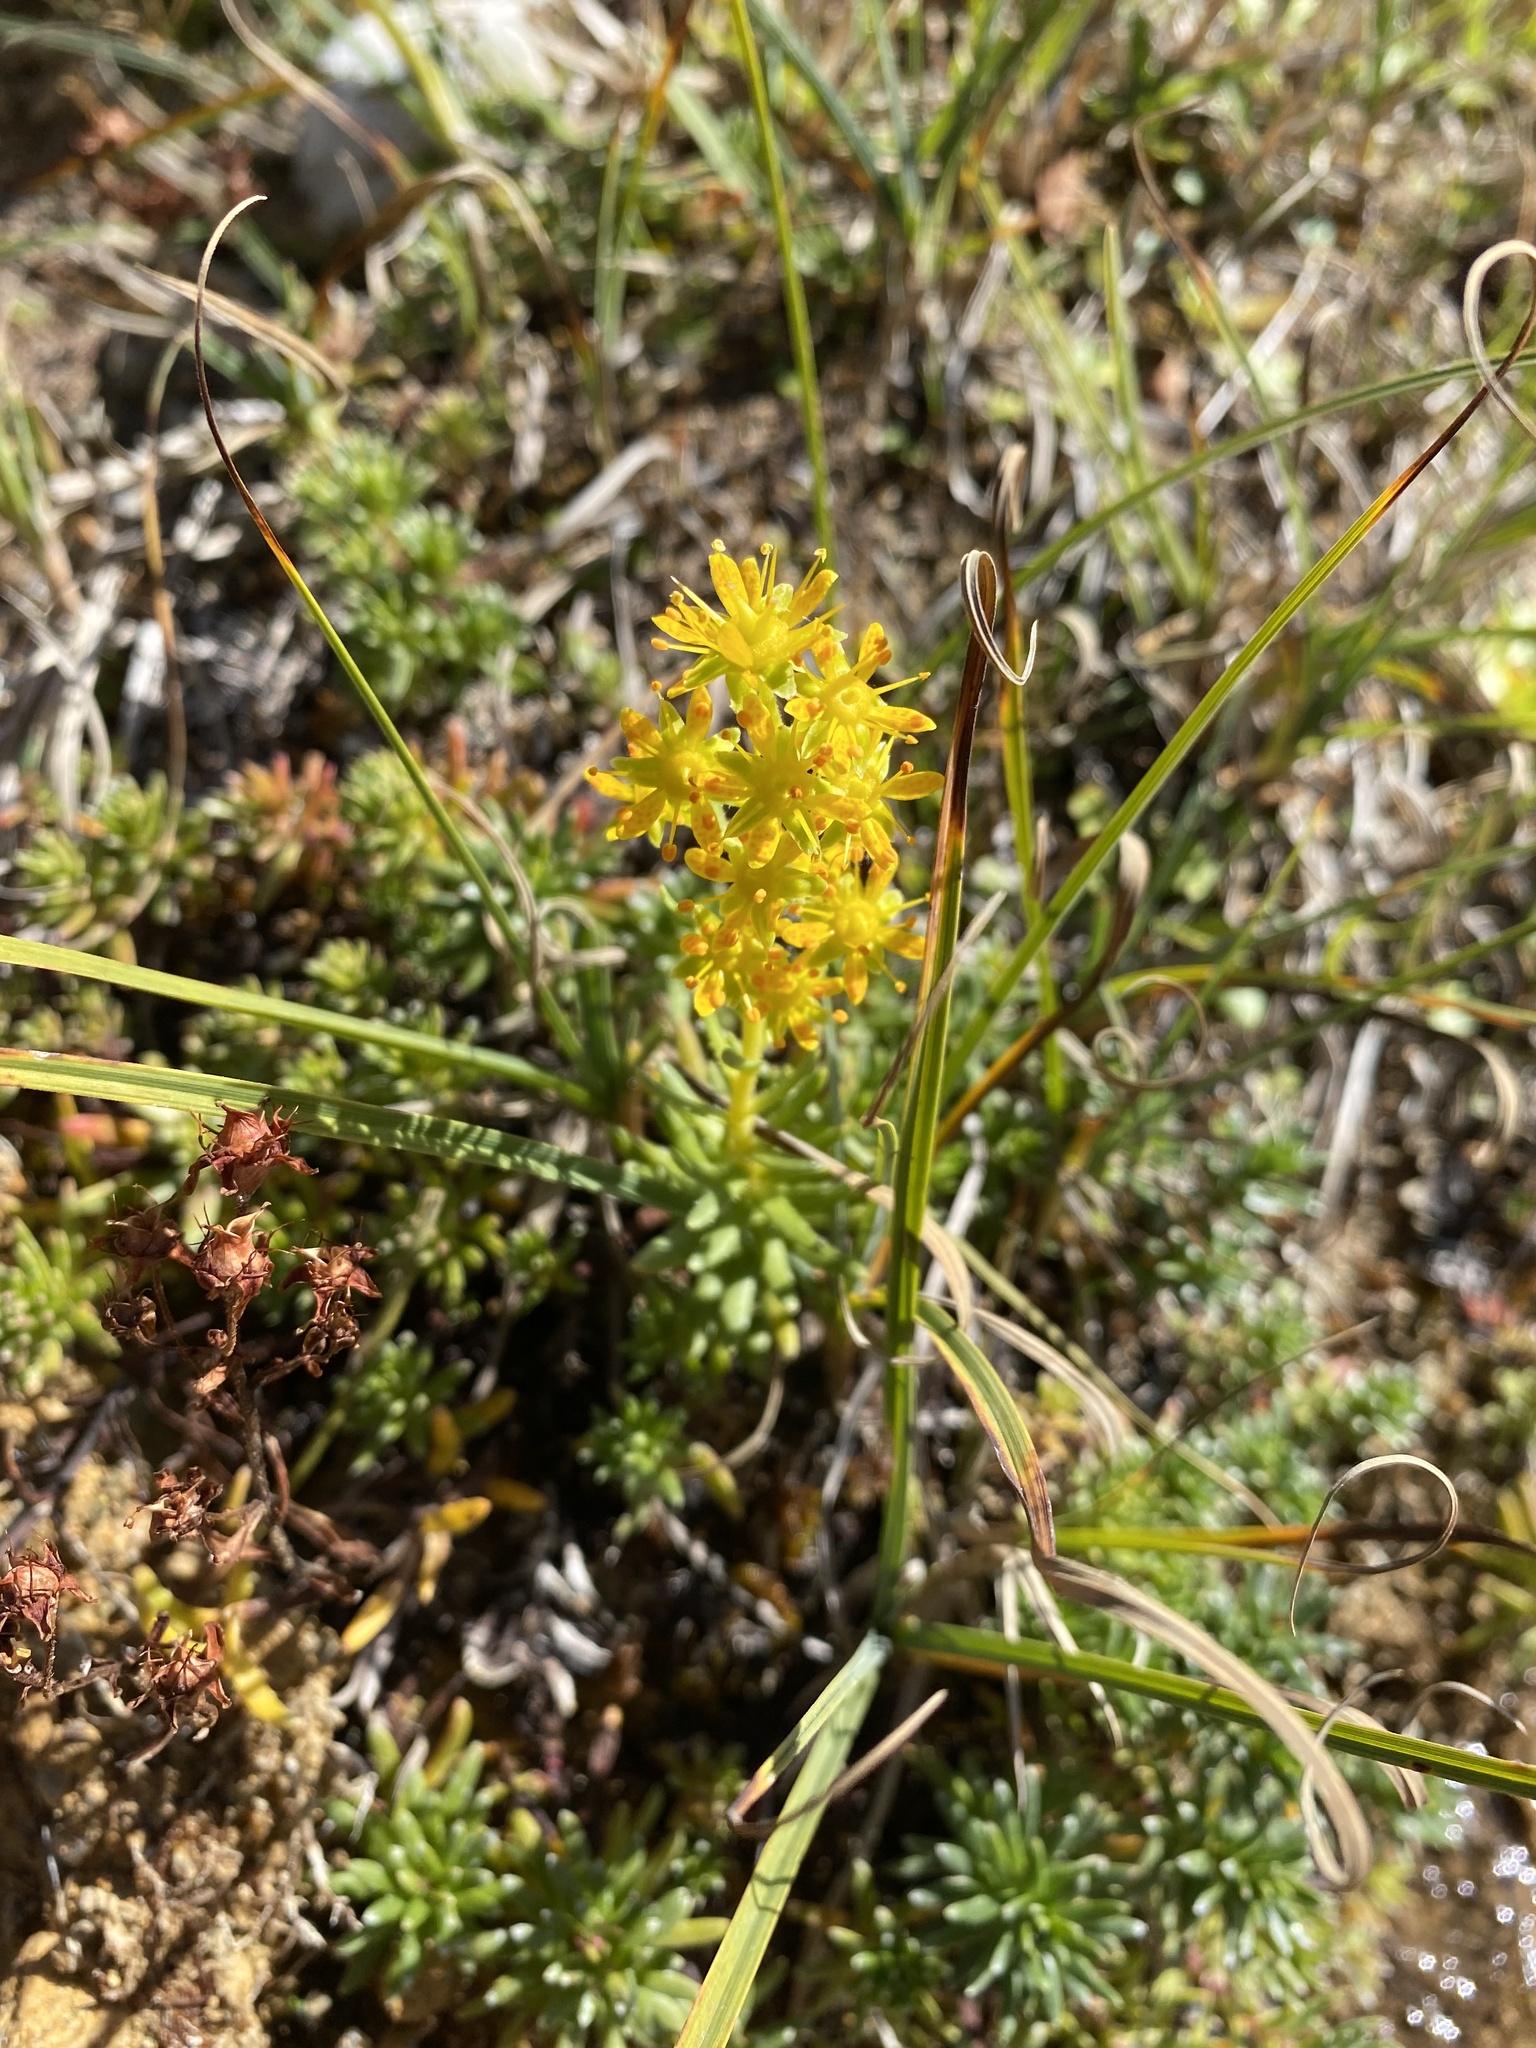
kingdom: Plantae
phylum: Tracheophyta
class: Magnoliopsida
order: Saxifragales
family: Saxifragaceae
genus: Saxifraga
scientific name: Saxifraga aizoides
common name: Yellow mountain saxifrage
